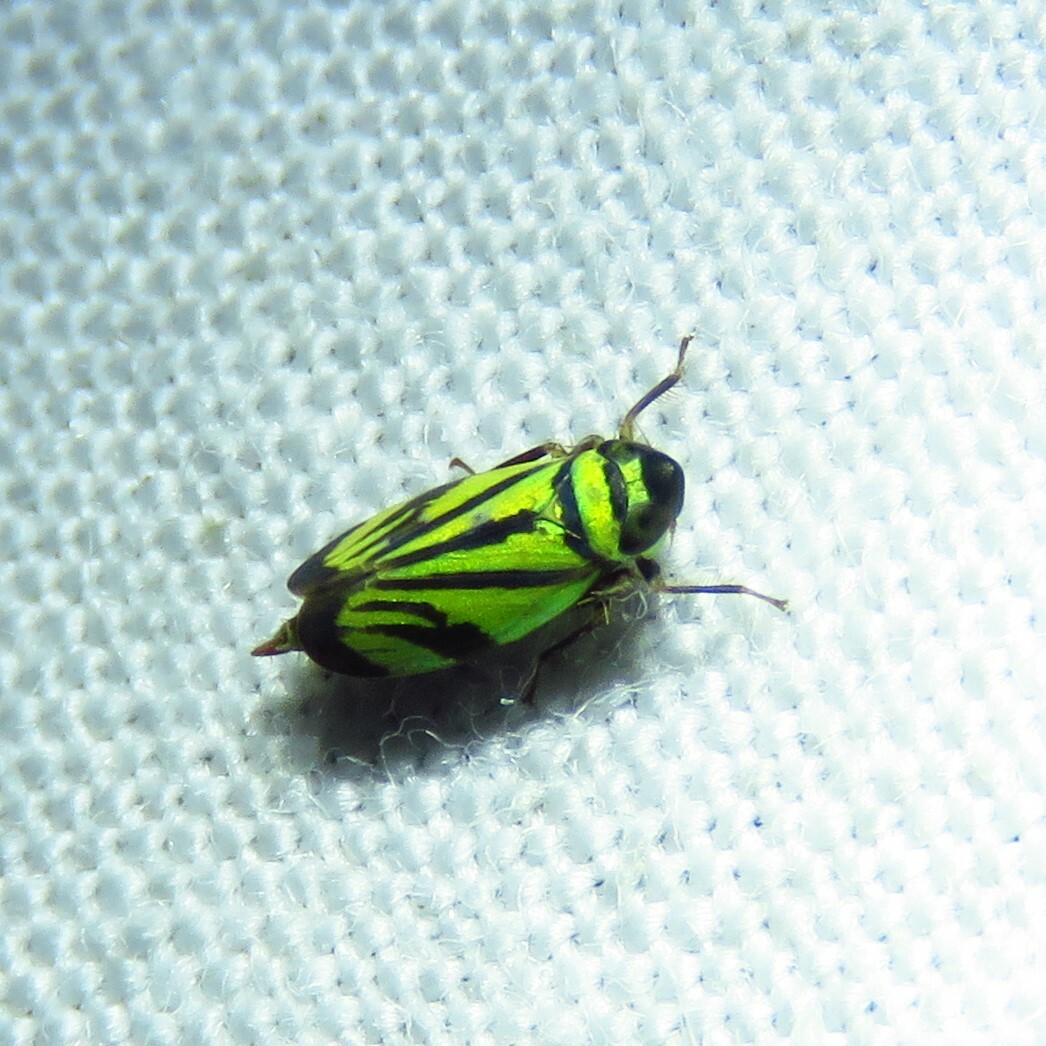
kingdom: Animalia
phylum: Arthropoda
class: Insecta
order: Hemiptera
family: Cicadellidae
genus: Stirellus
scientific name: Stirellus bicolor
